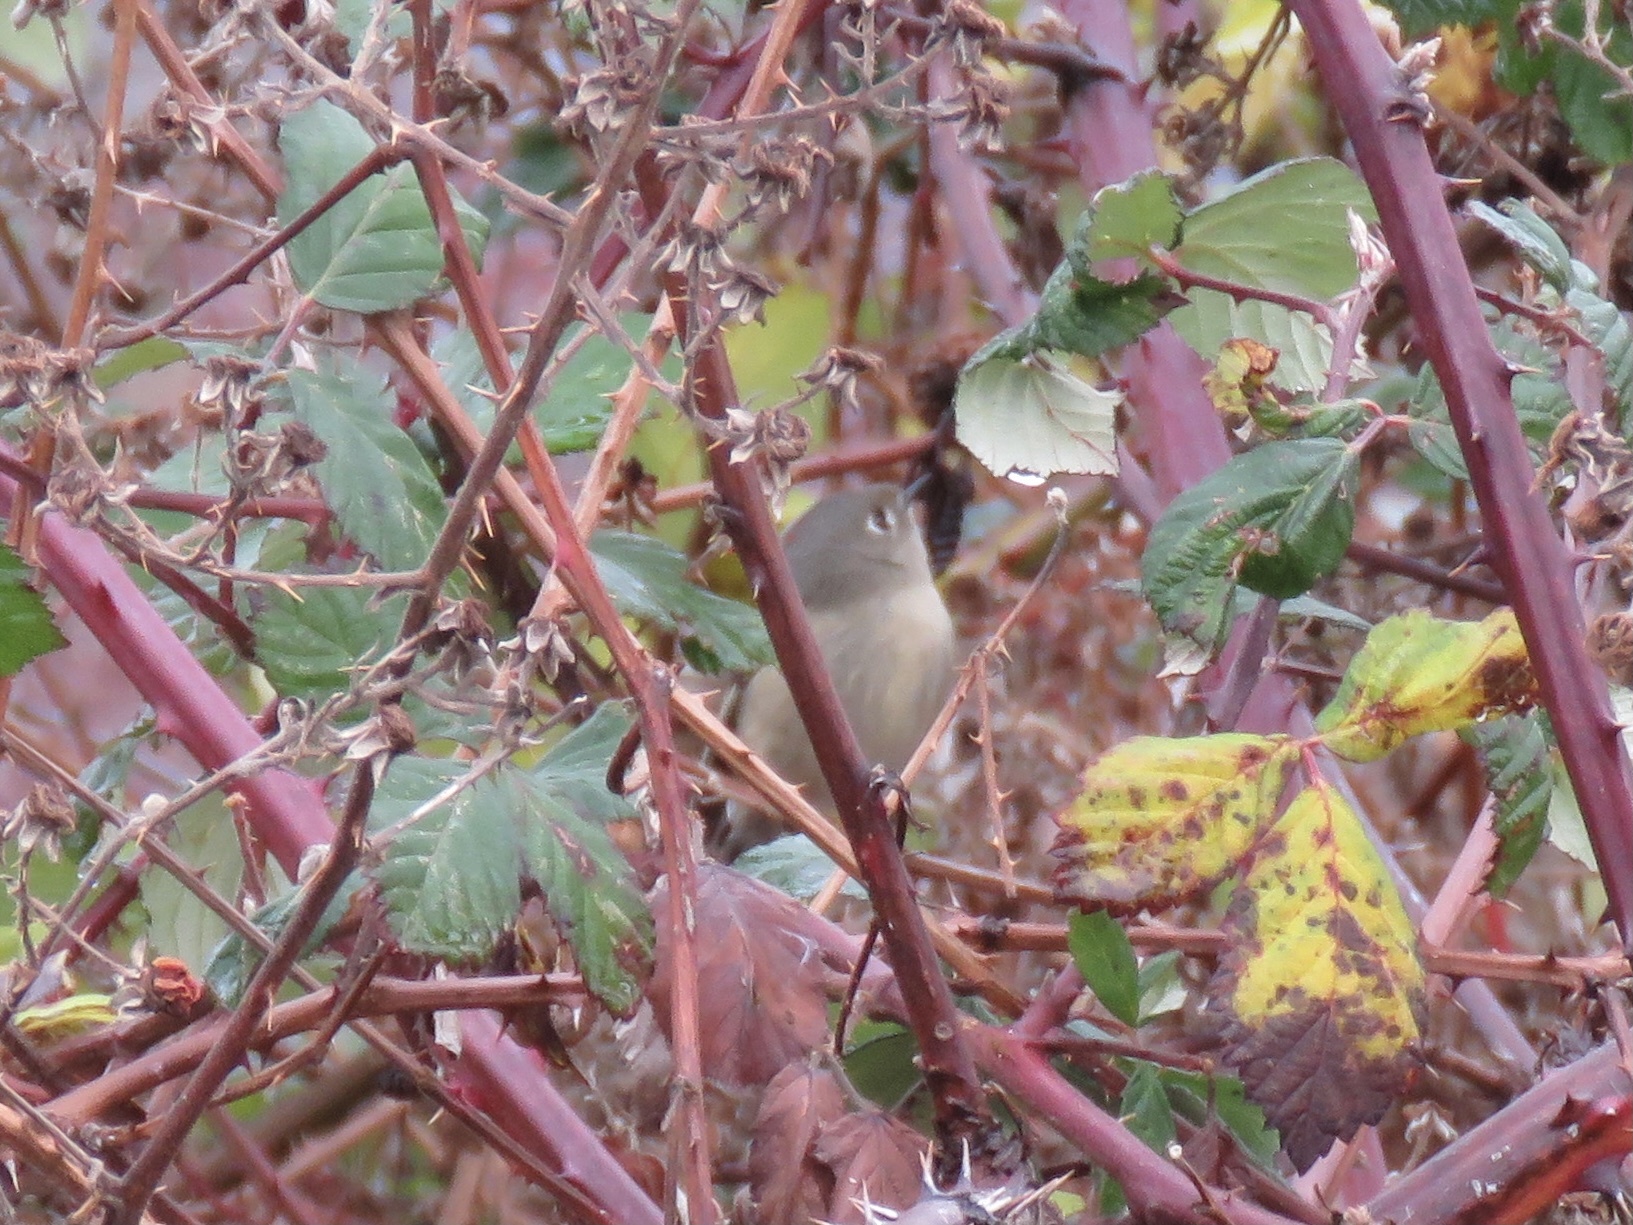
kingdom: Animalia
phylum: Chordata
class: Aves
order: Passeriformes
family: Regulidae
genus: Regulus
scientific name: Regulus calendula
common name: Ruby-crowned kinglet
